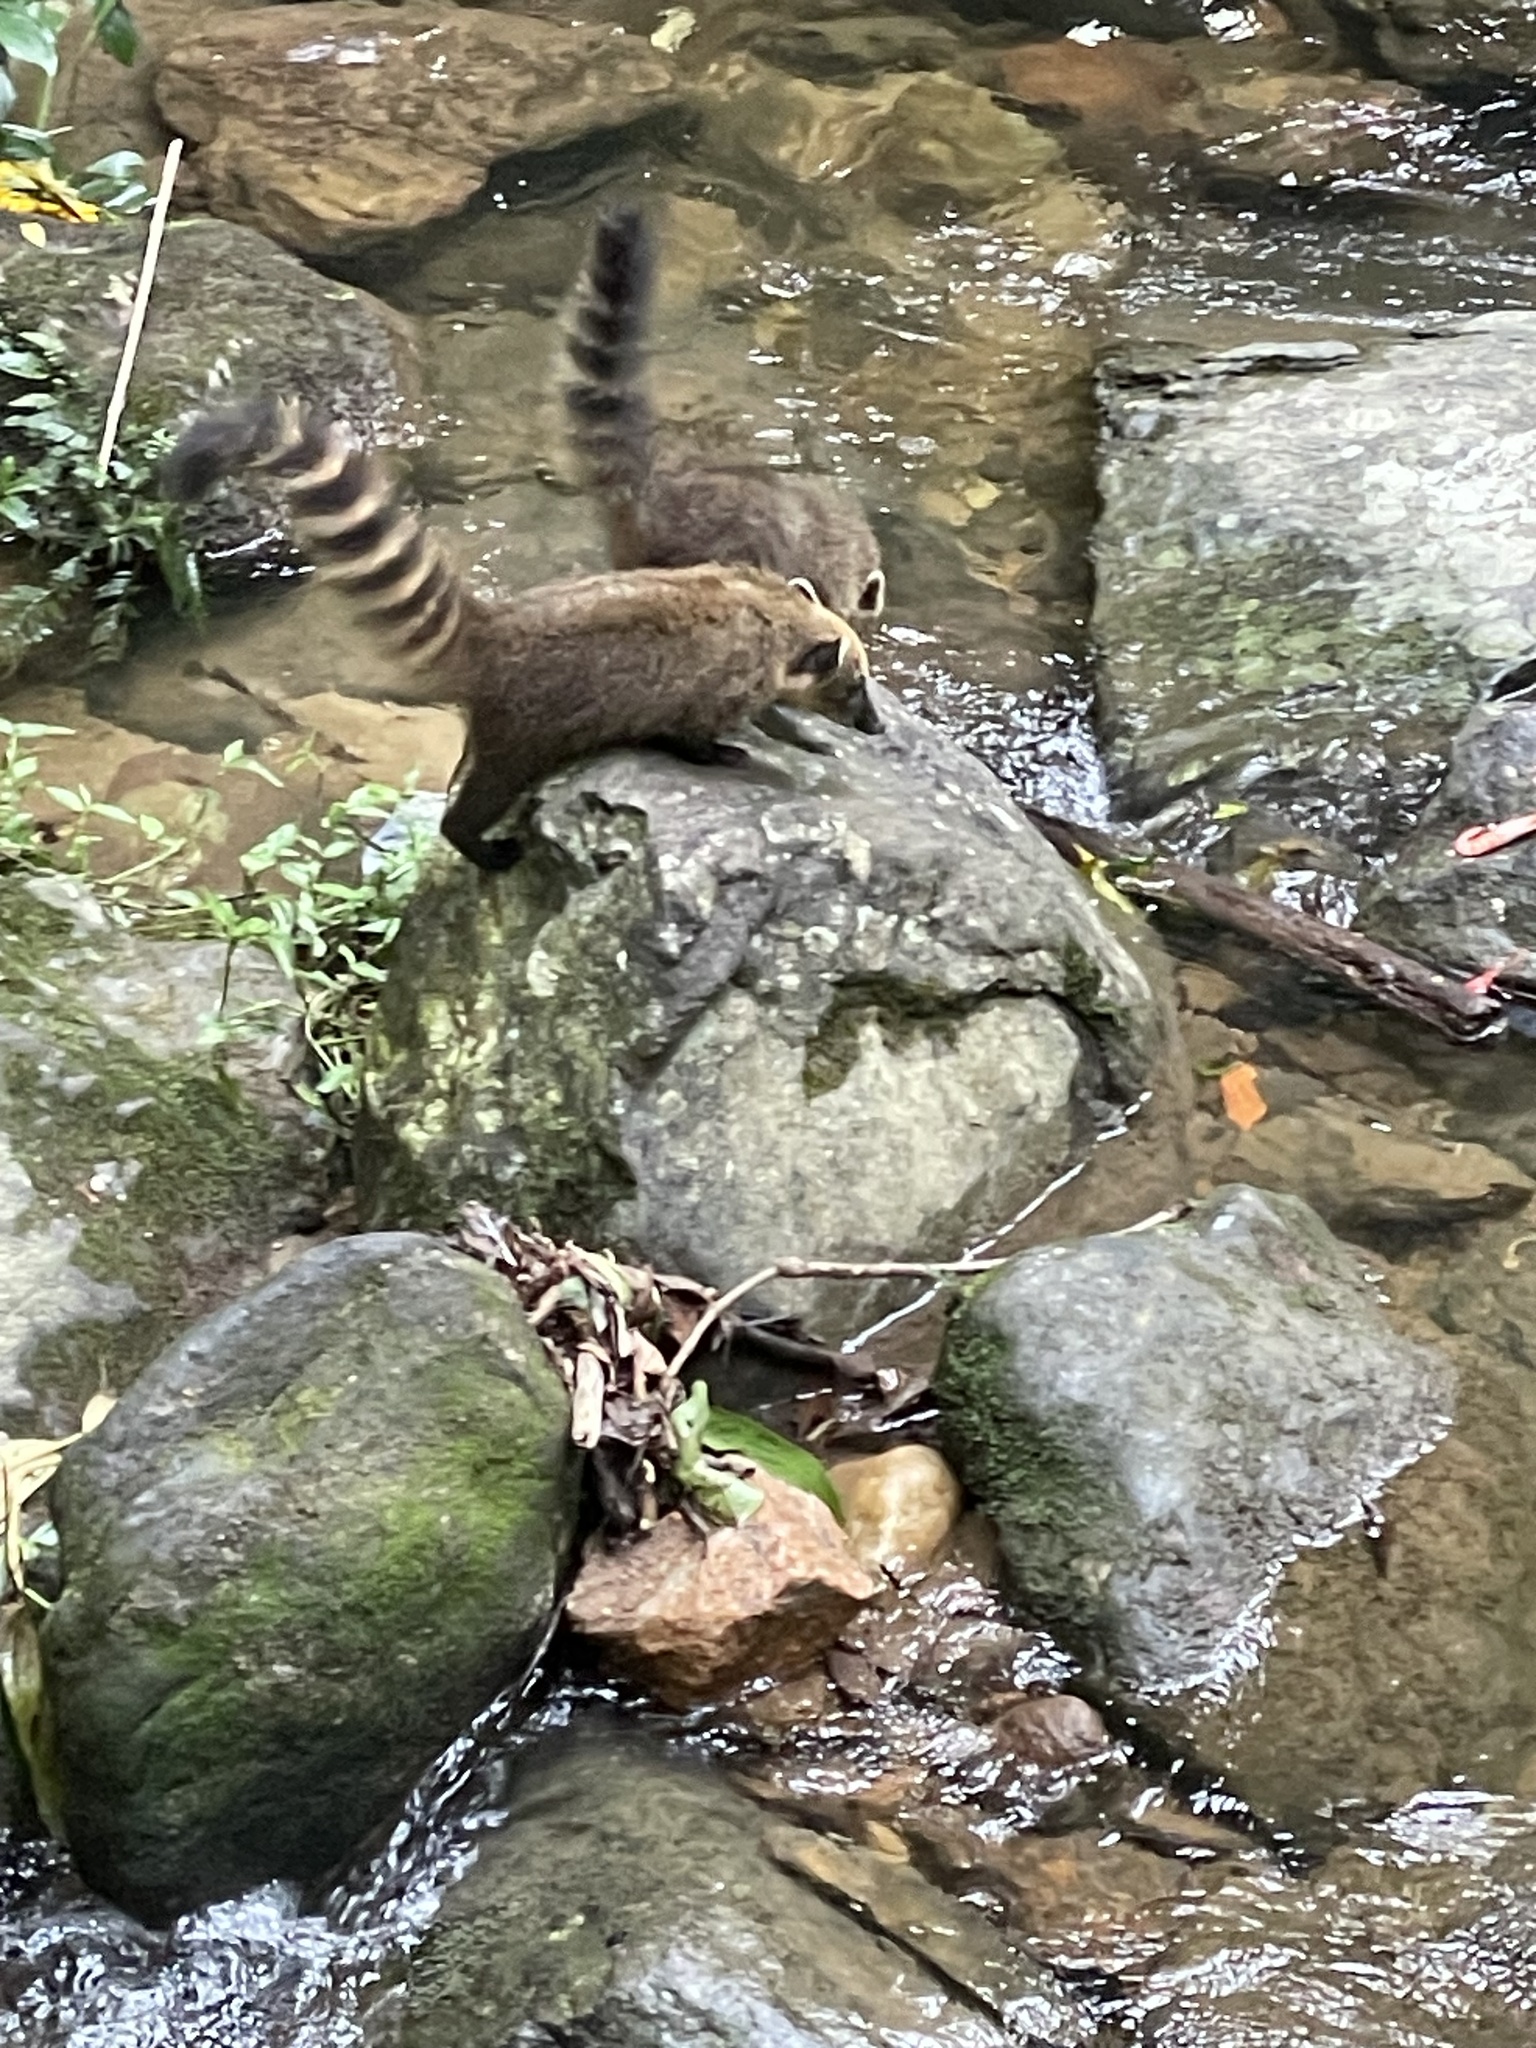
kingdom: Animalia
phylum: Chordata
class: Mammalia
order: Carnivora
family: Procyonidae
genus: Nasua
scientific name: Nasua nasua
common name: South american coati
